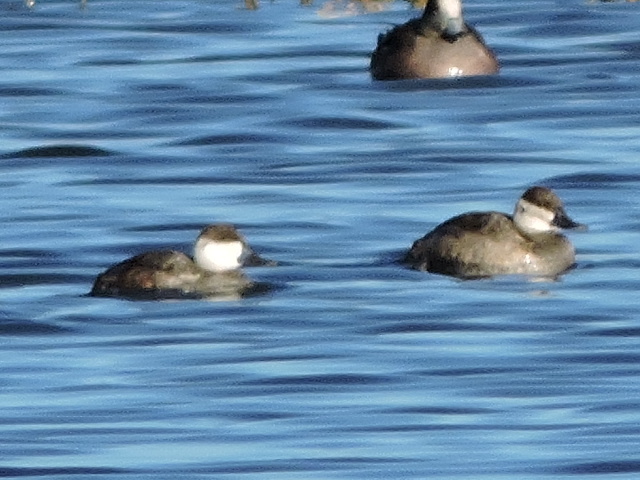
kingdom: Animalia
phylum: Chordata
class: Aves
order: Anseriformes
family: Anatidae
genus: Oxyura
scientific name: Oxyura jamaicensis
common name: Ruddy duck
